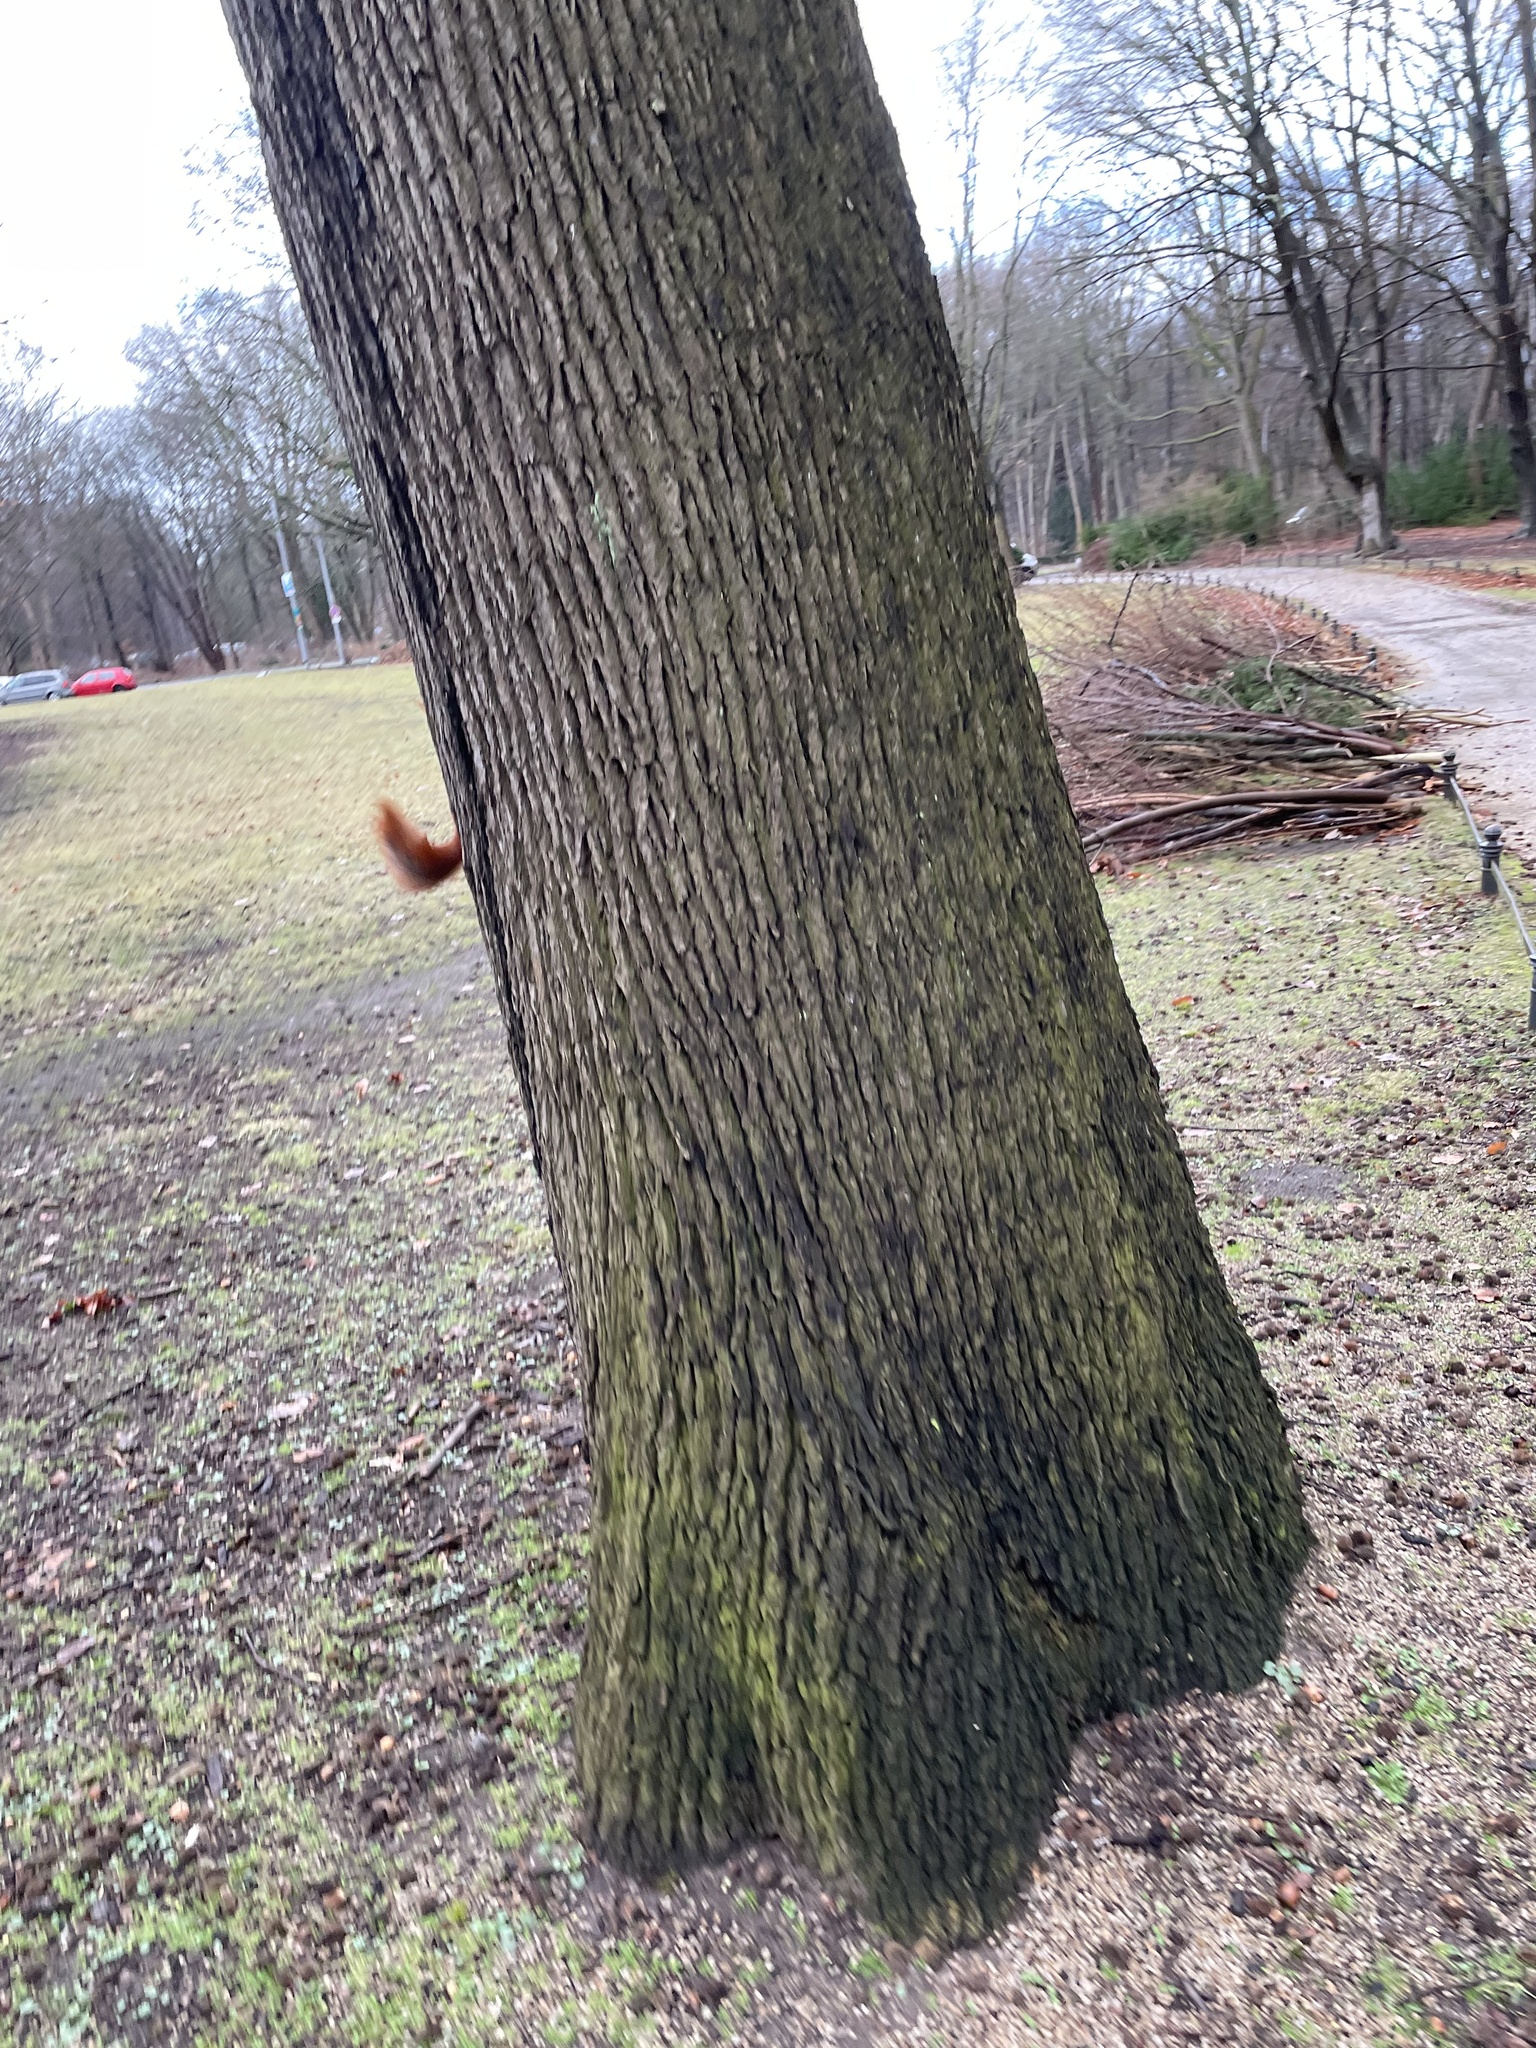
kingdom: Animalia
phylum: Chordata
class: Mammalia
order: Rodentia
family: Sciuridae
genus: Sciurus
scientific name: Sciurus vulgaris
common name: Eurasian red squirrel
